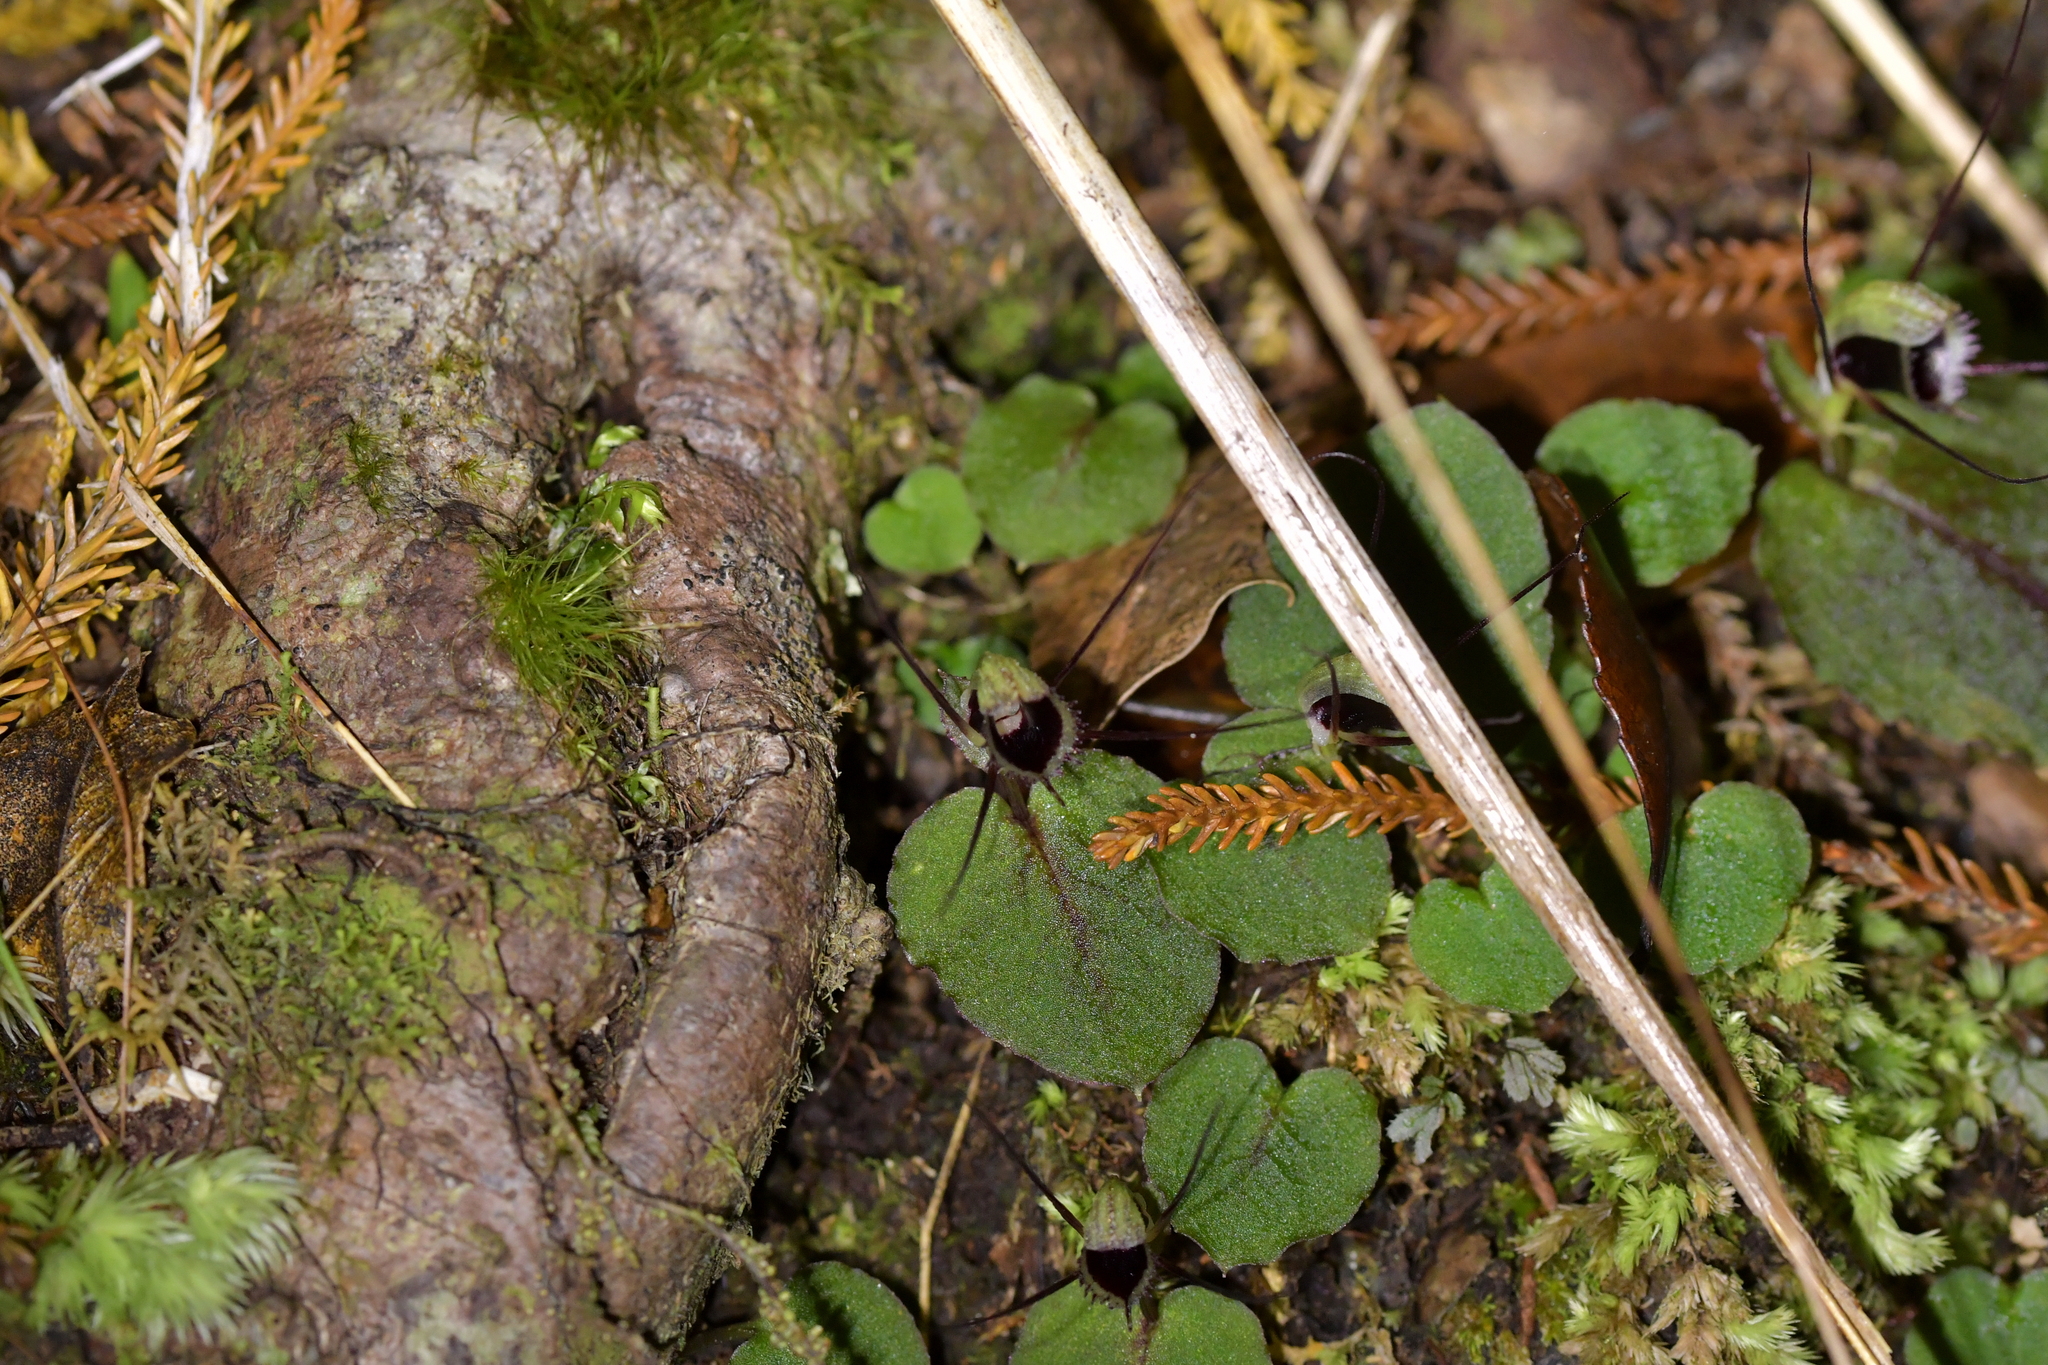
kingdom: Plantae
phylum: Tracheophyta
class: Liliopsida
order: Asparagales
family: Orchidaceae
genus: Corybas
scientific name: Corybas oblongus
